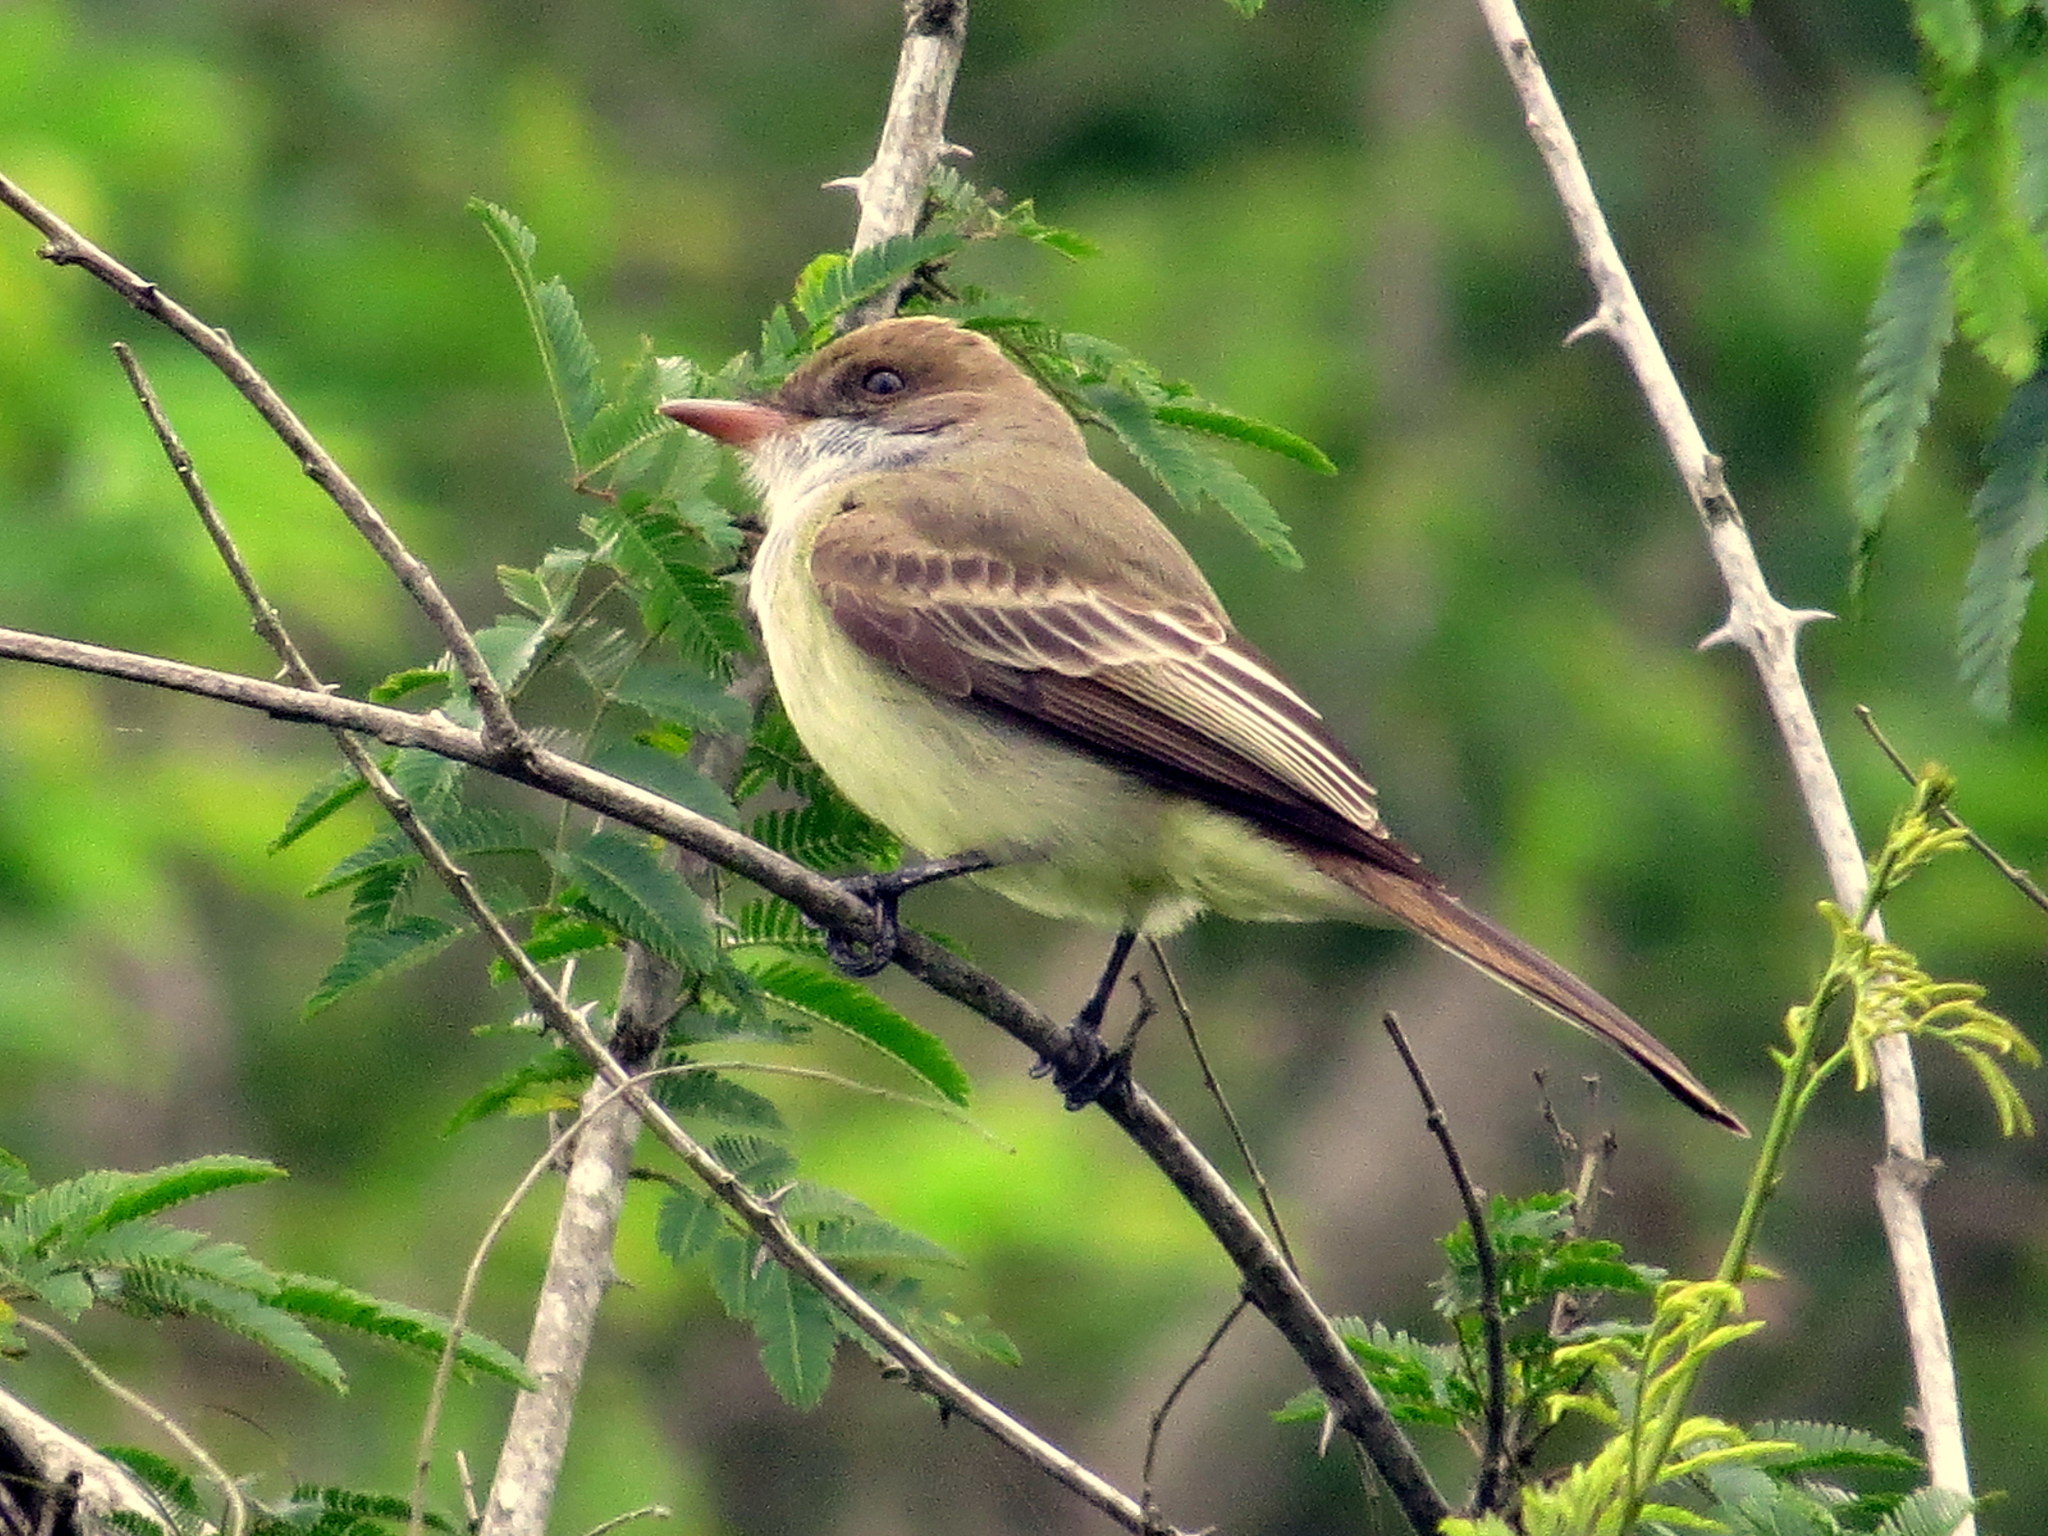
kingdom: Animalia
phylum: Chordata
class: Aves
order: Passeriformes
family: Tyrannidae
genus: Myiarchus
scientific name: Myiarchus swainsoni
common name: Swainson's flycatcher
